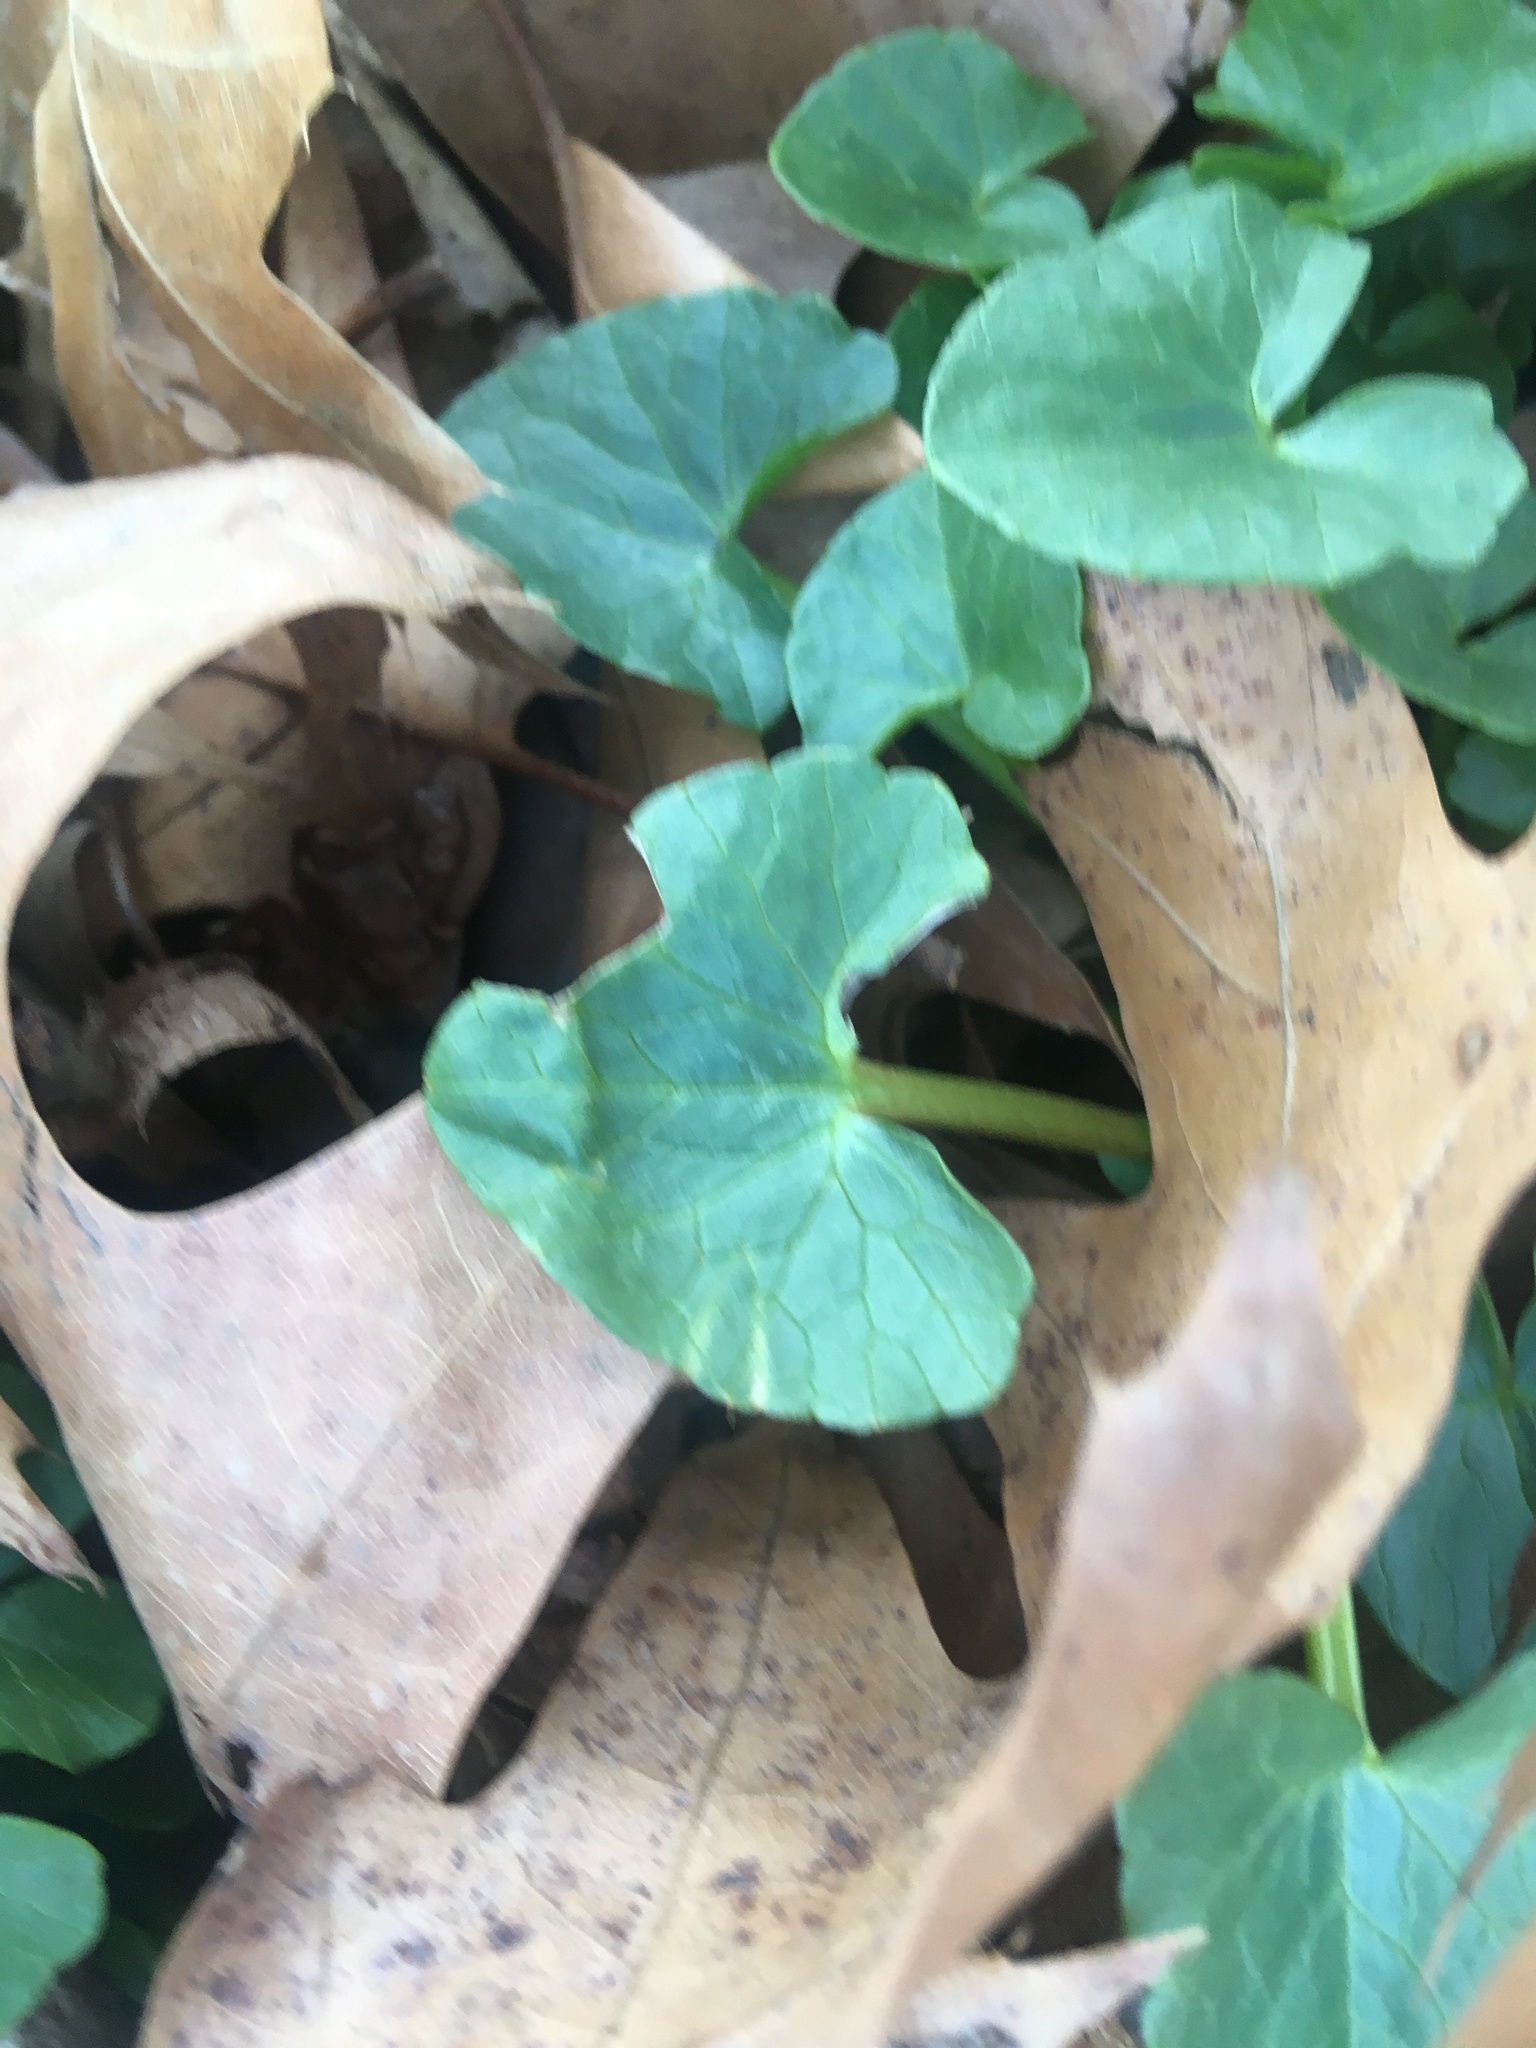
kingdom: Plantae
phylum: Tracheophyta
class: Magnoliopsida
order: Ranunculales
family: Ranunculaceae
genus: Ficaria
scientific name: Ficaria verna
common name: Lesser celandine
